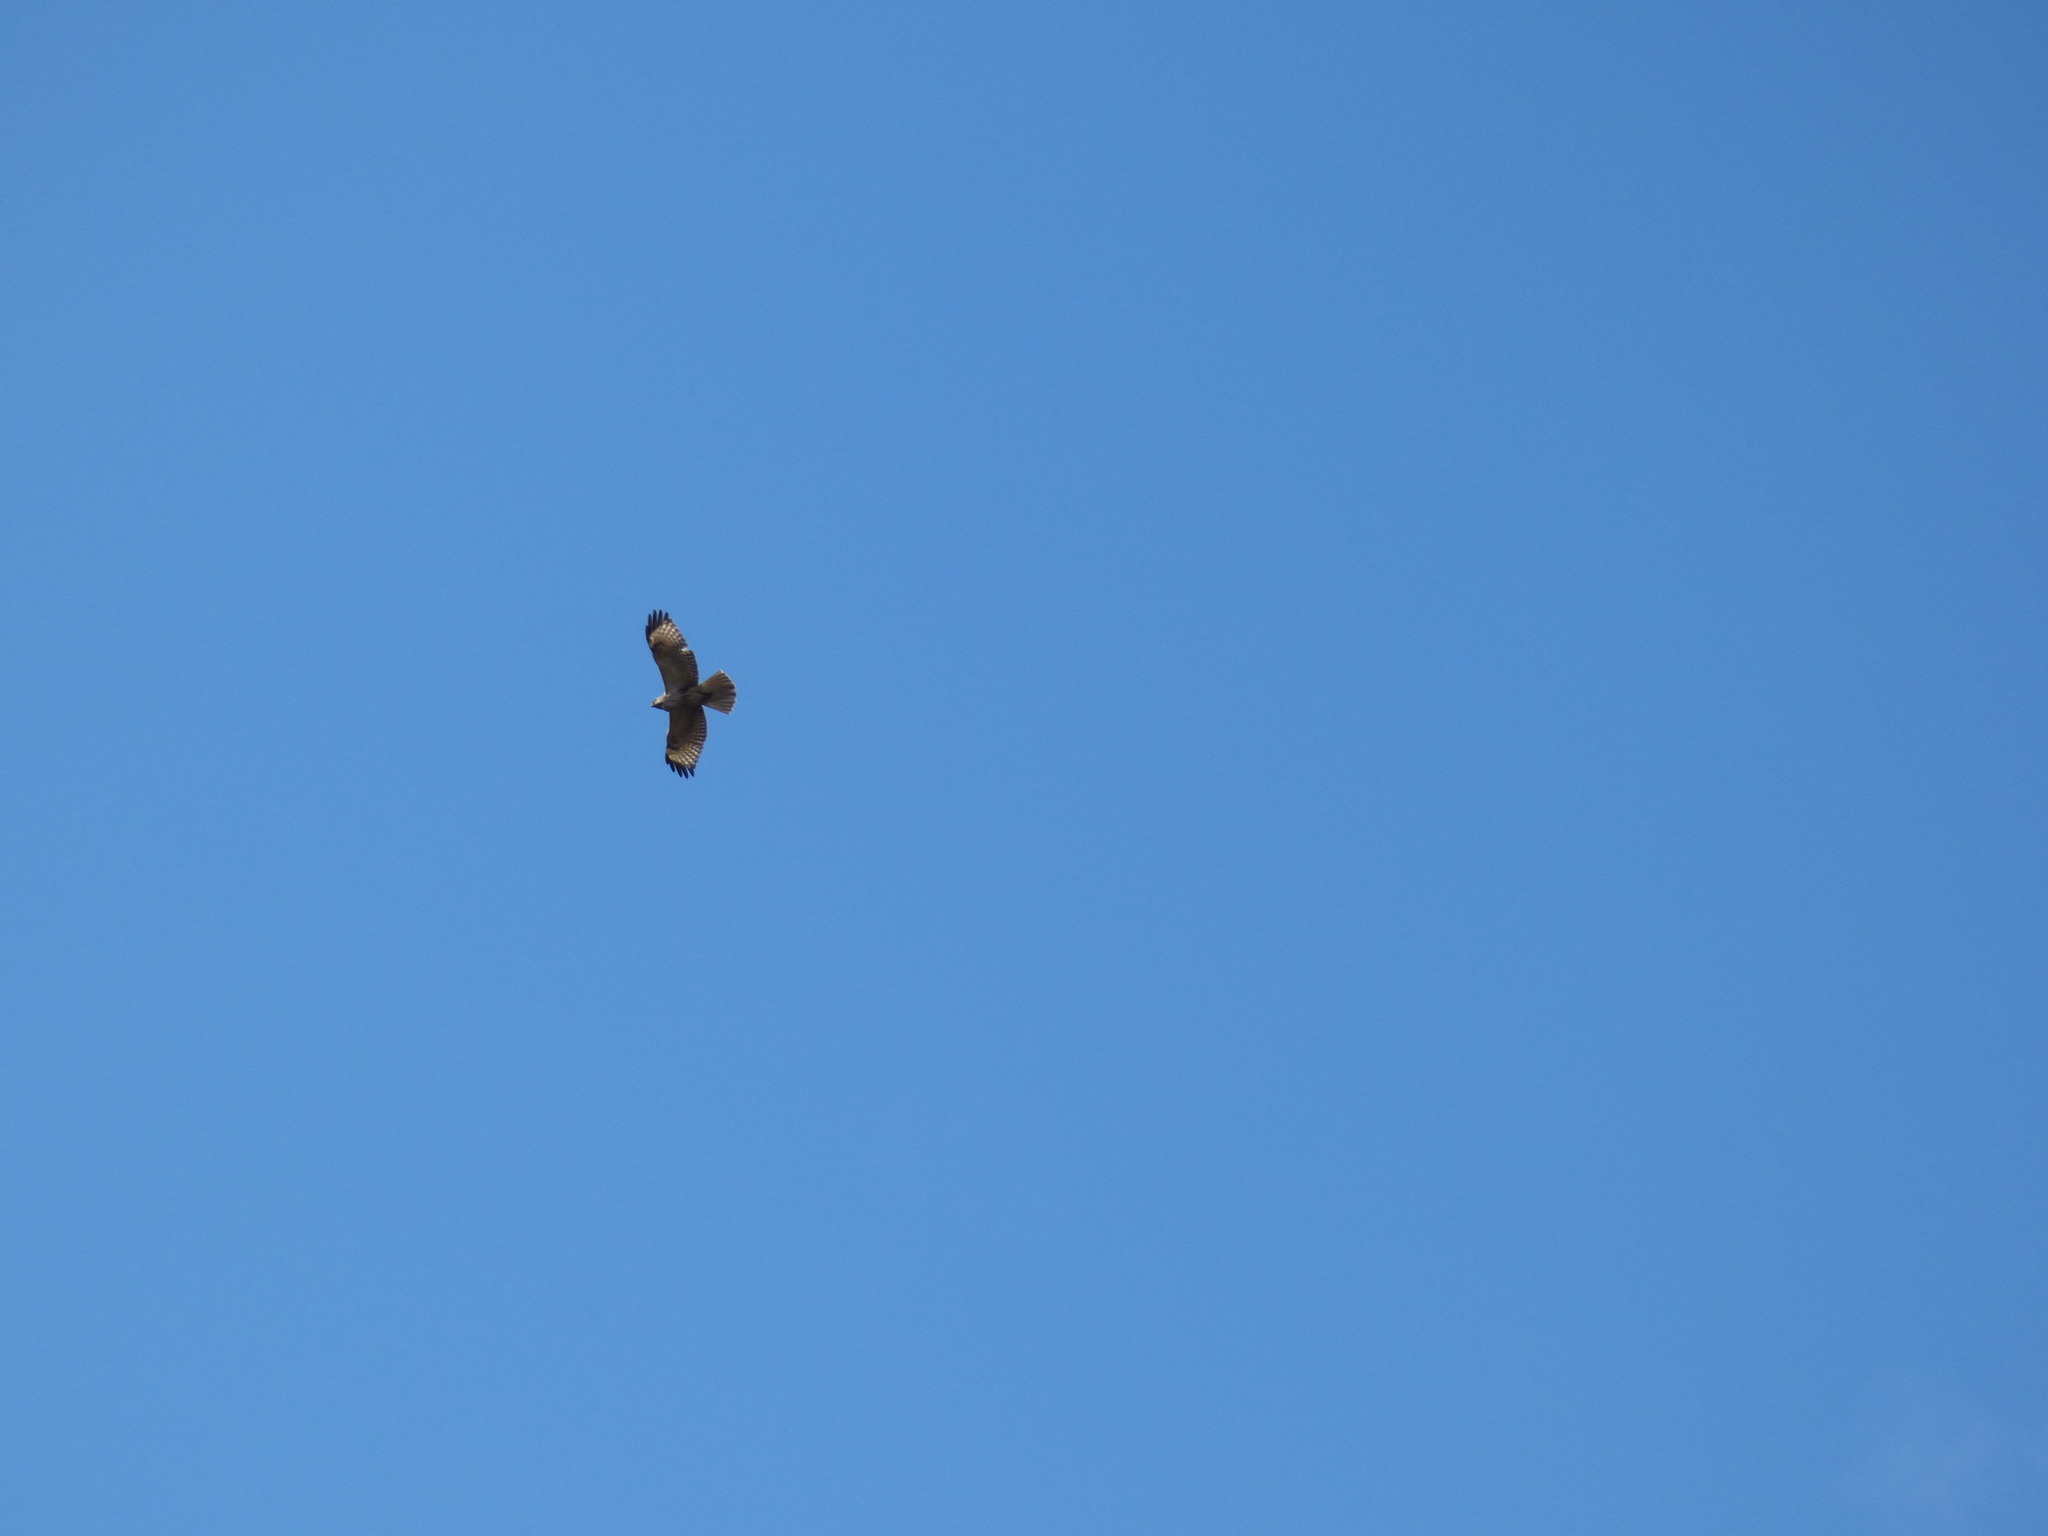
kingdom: Animalia
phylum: Chordata
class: Aves
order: Accipitriformes
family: Accipitridae
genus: Buteo
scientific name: Buteo japonicus
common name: Eastern buzzard
